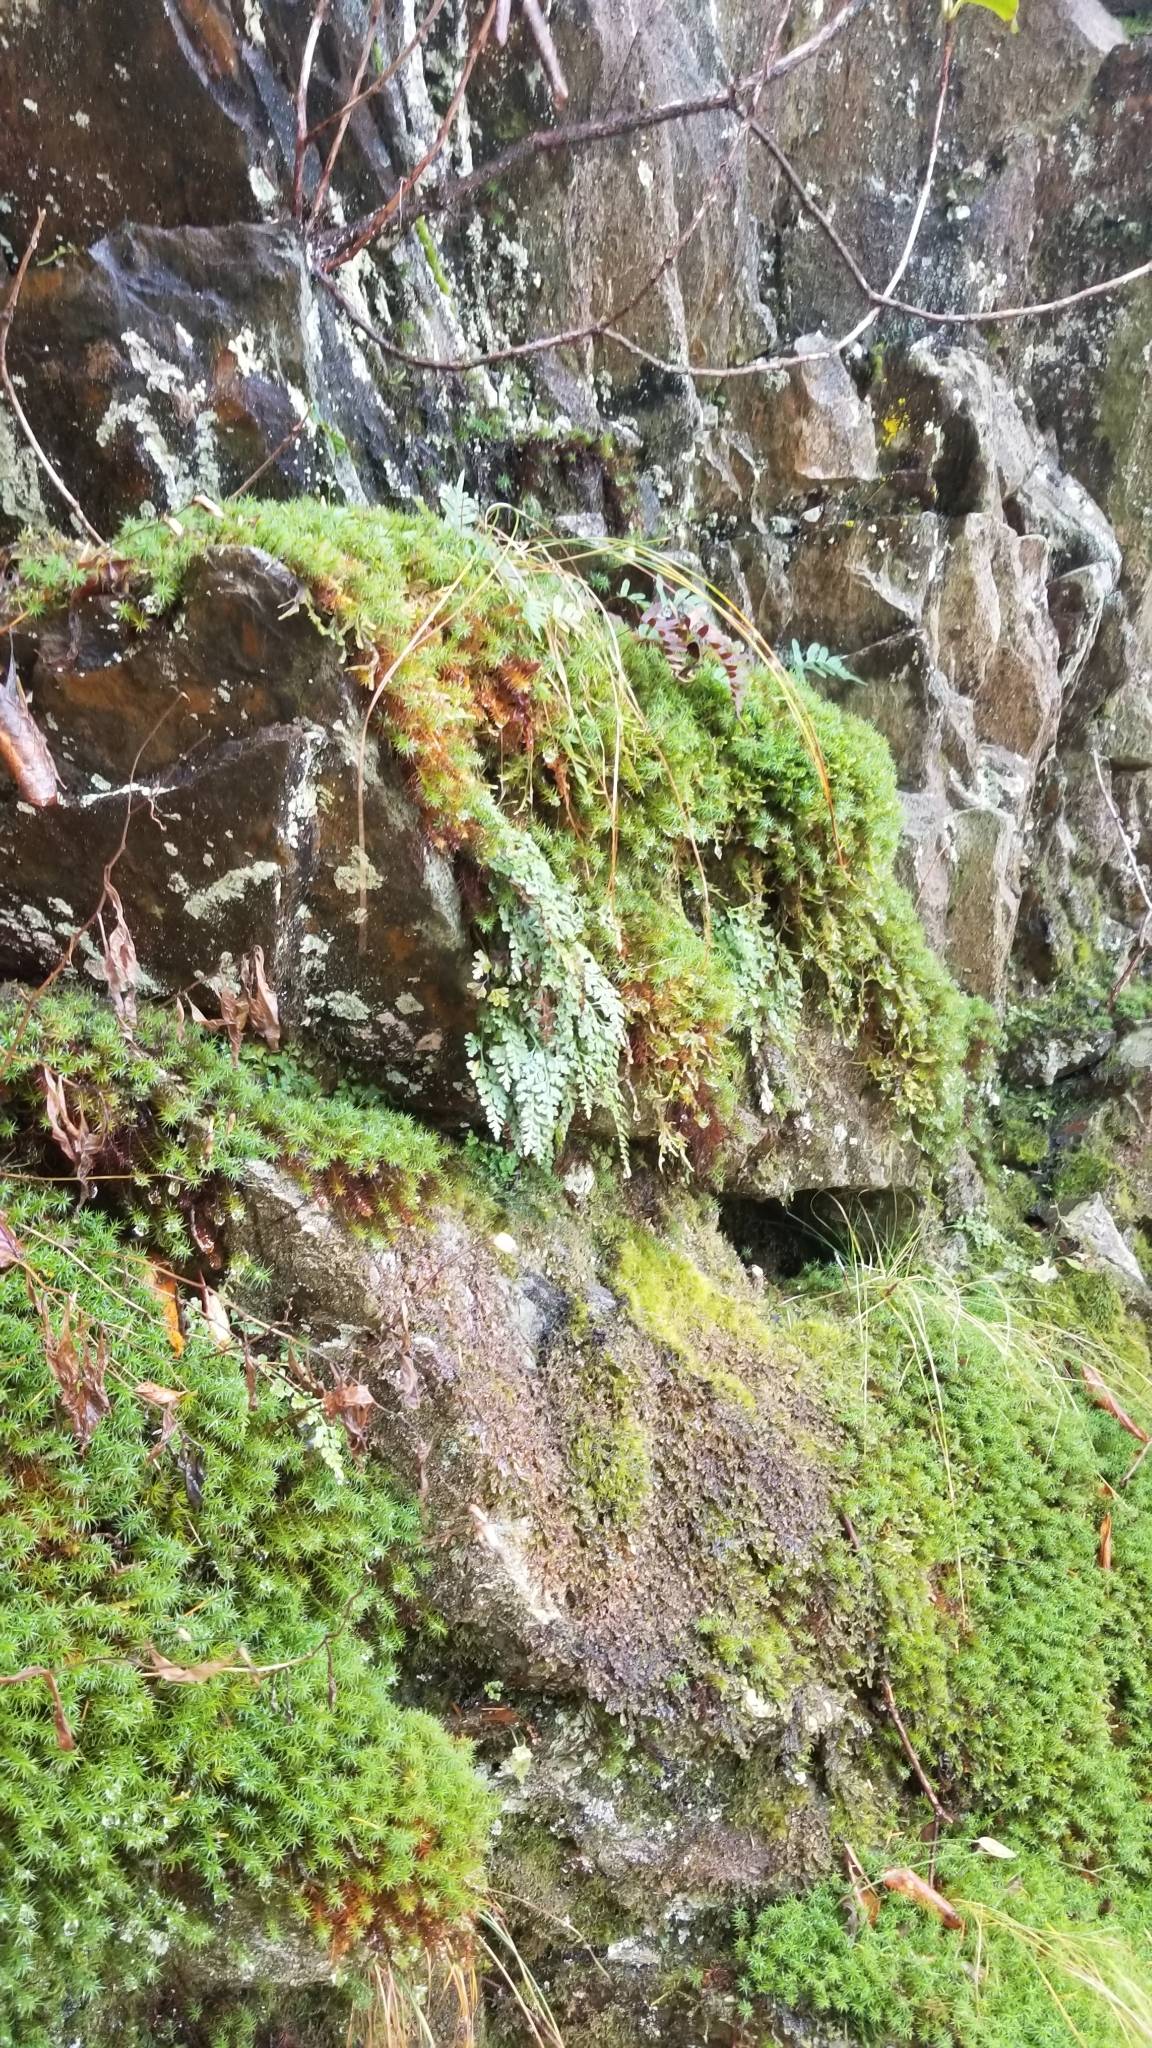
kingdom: Plantae
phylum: Tracheophyta
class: Polypodiopsida
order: Polypodiales
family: Aspleniaceae
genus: Asplenium
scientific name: Asplenium montanum
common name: Mountain spleenwort
